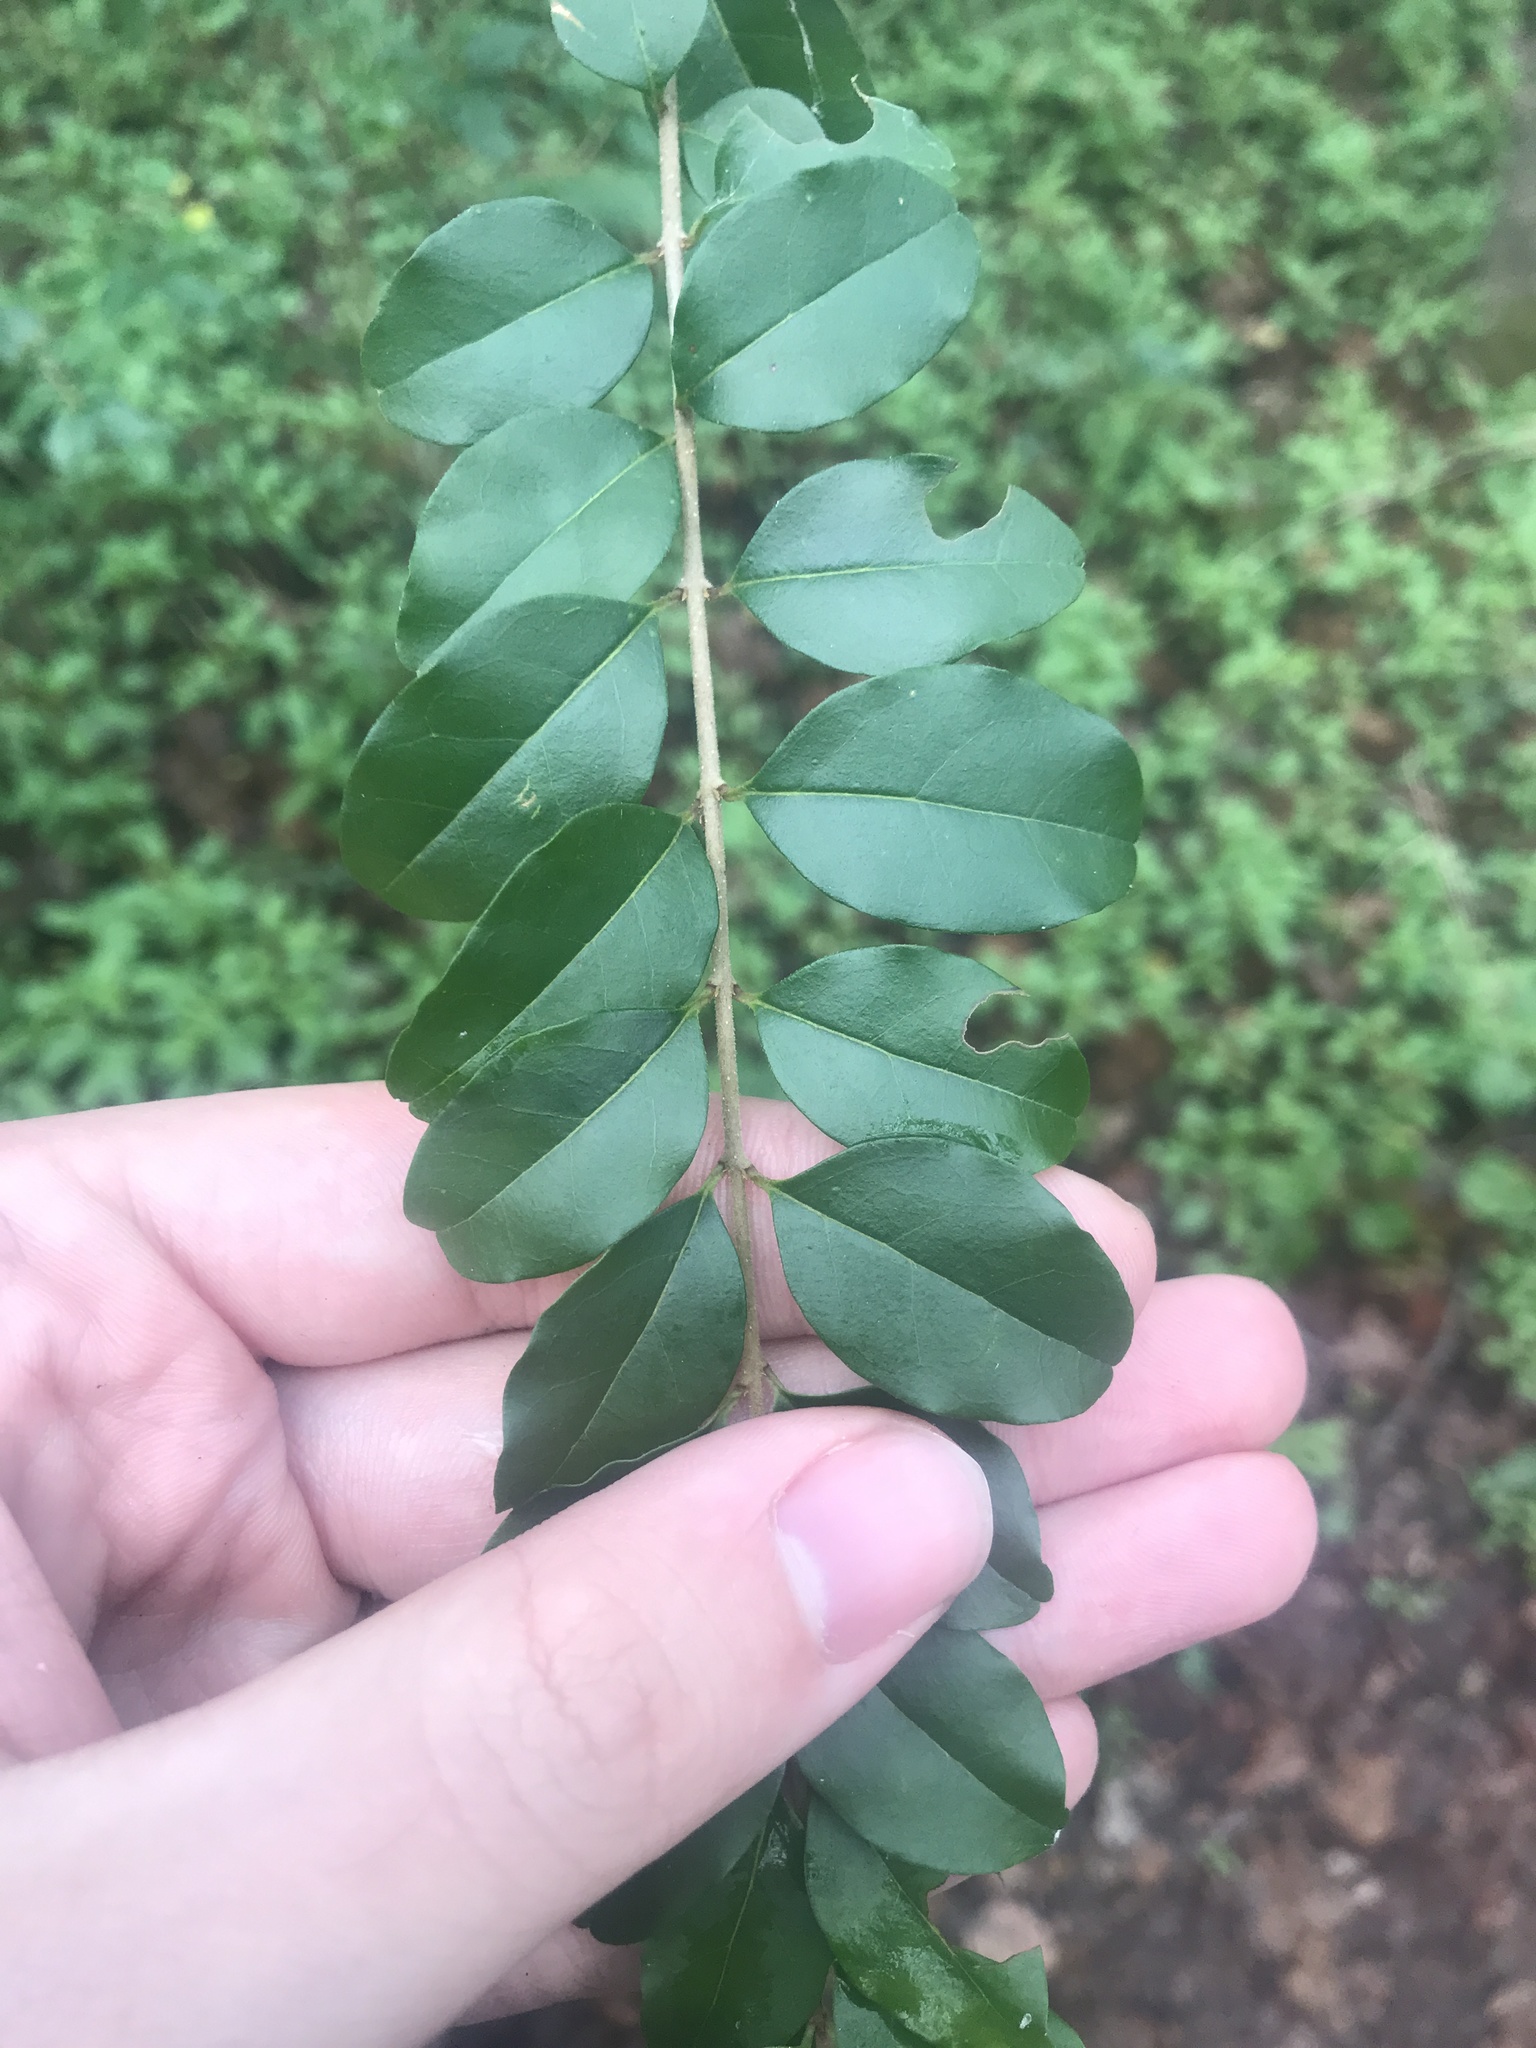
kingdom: Plantae
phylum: Tracheophyta
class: Magnoliopsida
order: Lamiales
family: Oleaceae
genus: Ligustrum
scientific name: Ligustrum sinense
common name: Chinese privet
